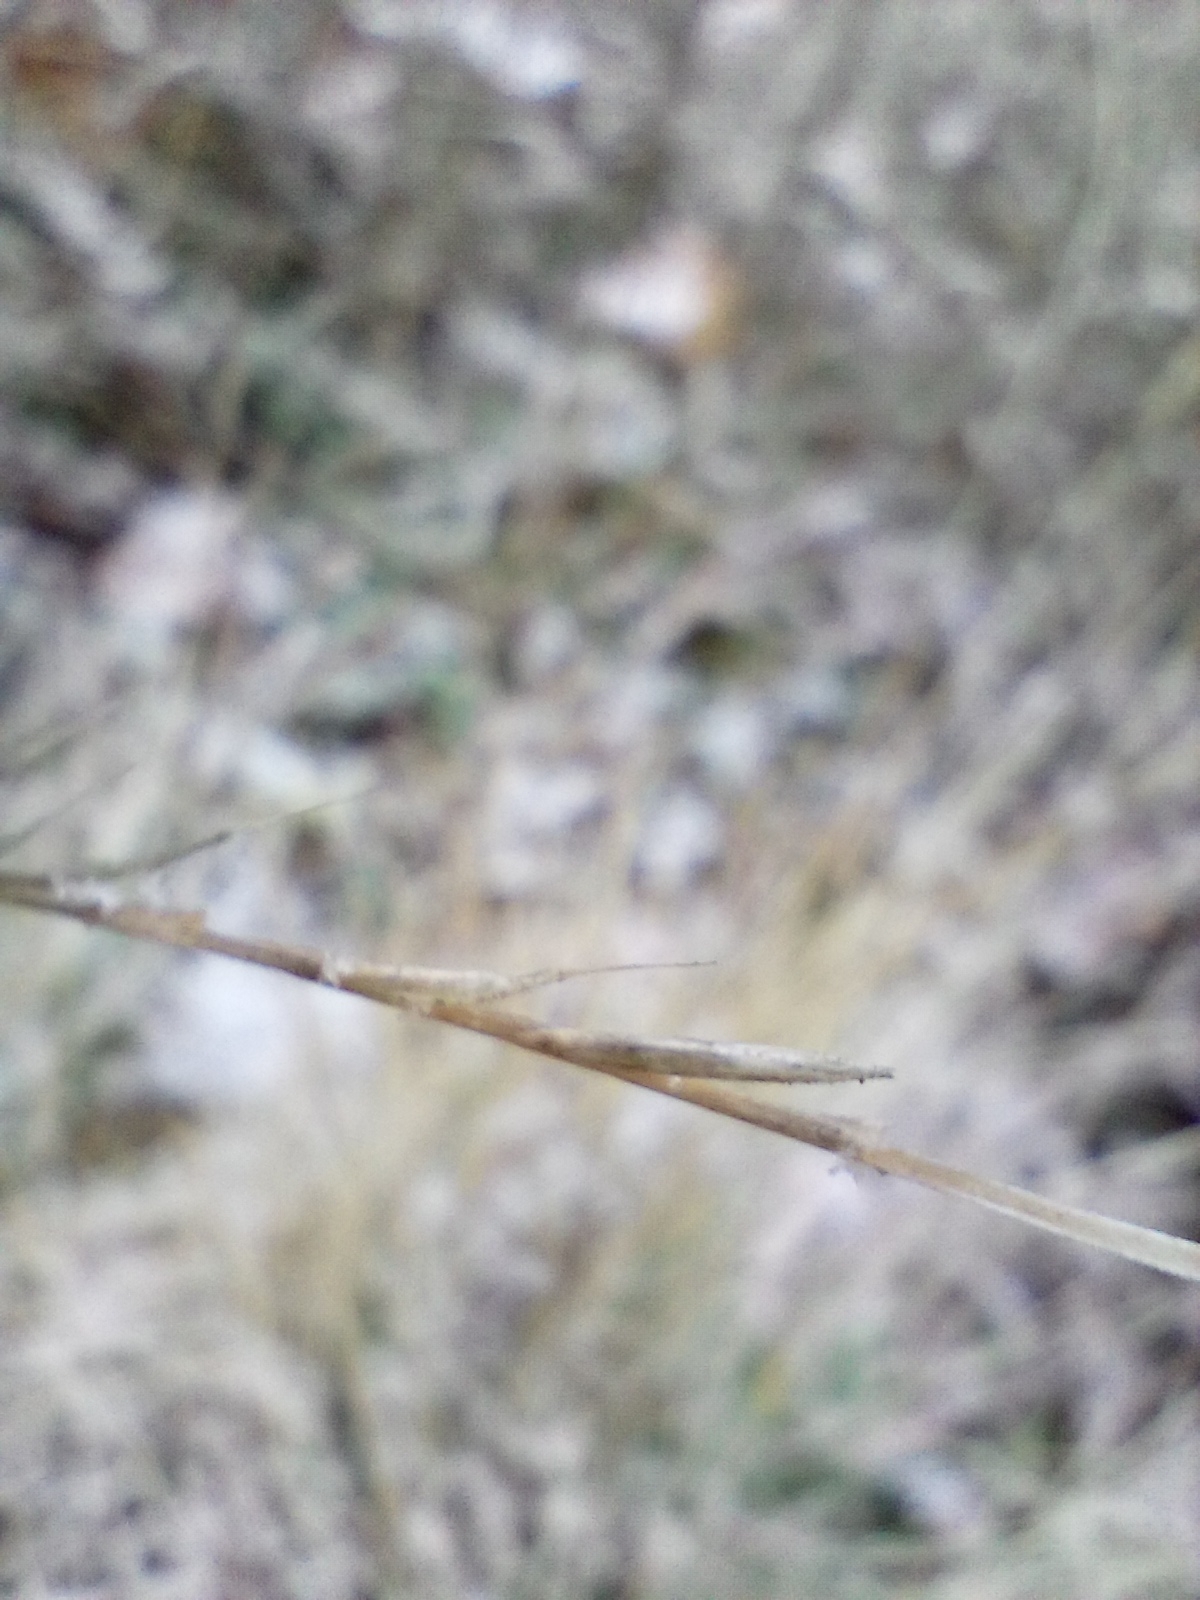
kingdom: Plantae
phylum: Tracheophyta
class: Liliopsida
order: Poales
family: Poaceae
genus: Nardus
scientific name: Nardus stricta
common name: Mat-grass
